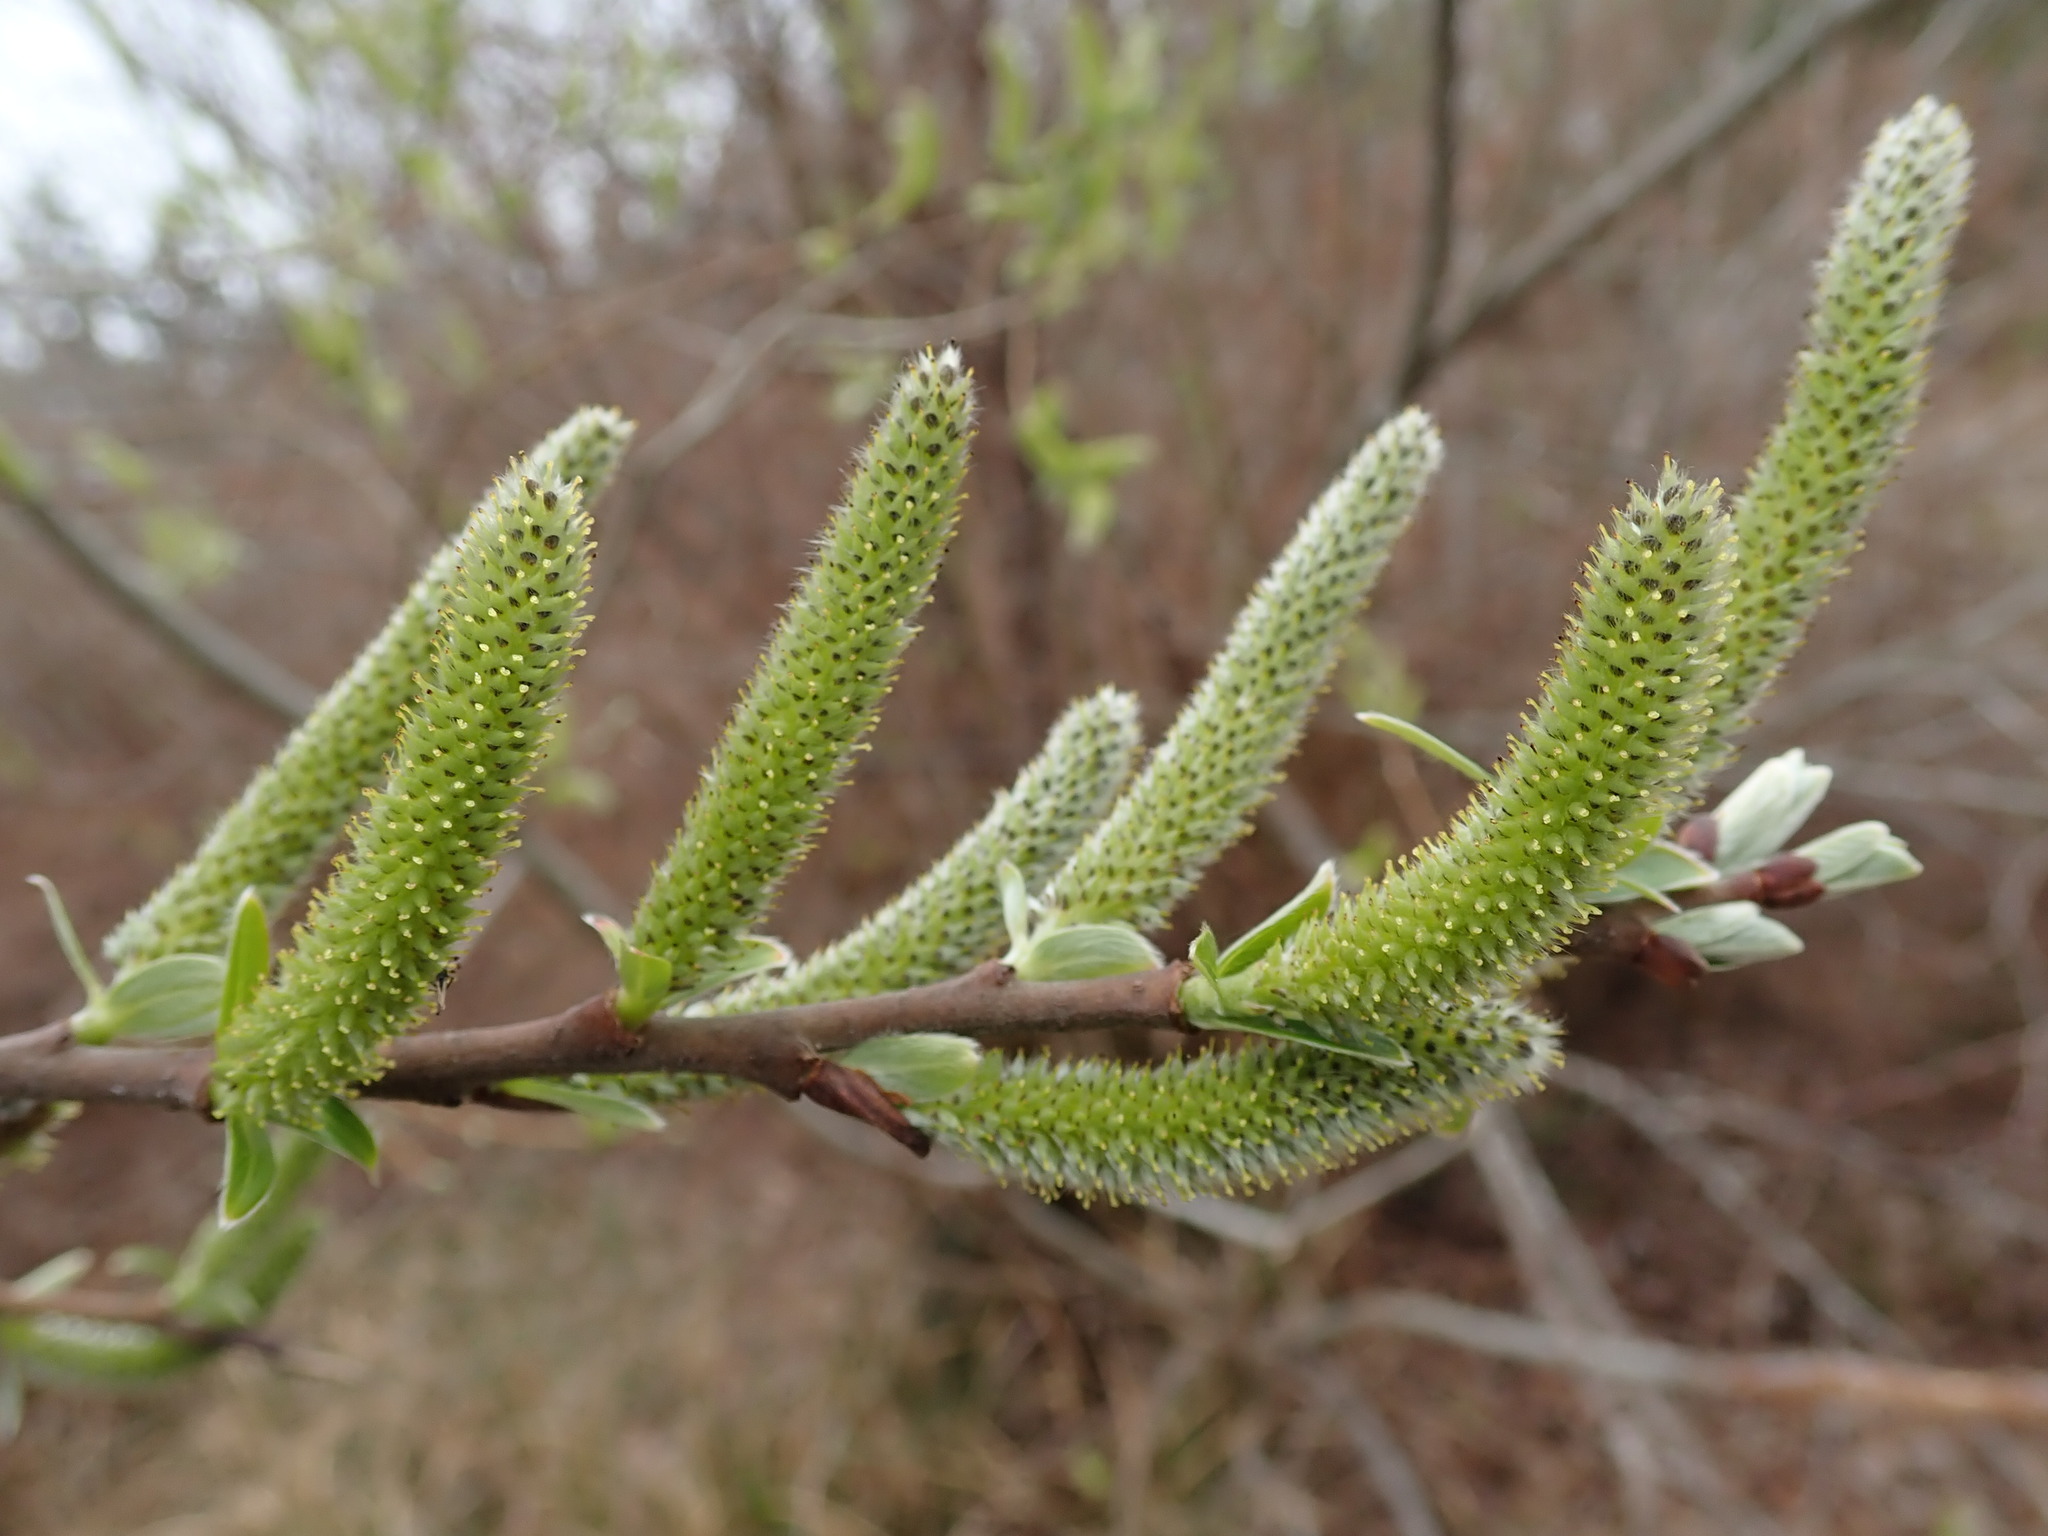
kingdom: Plantae
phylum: Tracheophyta
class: Magnoliopsida
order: Malpighiales
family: Salicaceae
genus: Salix
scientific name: Salix scouleriana
